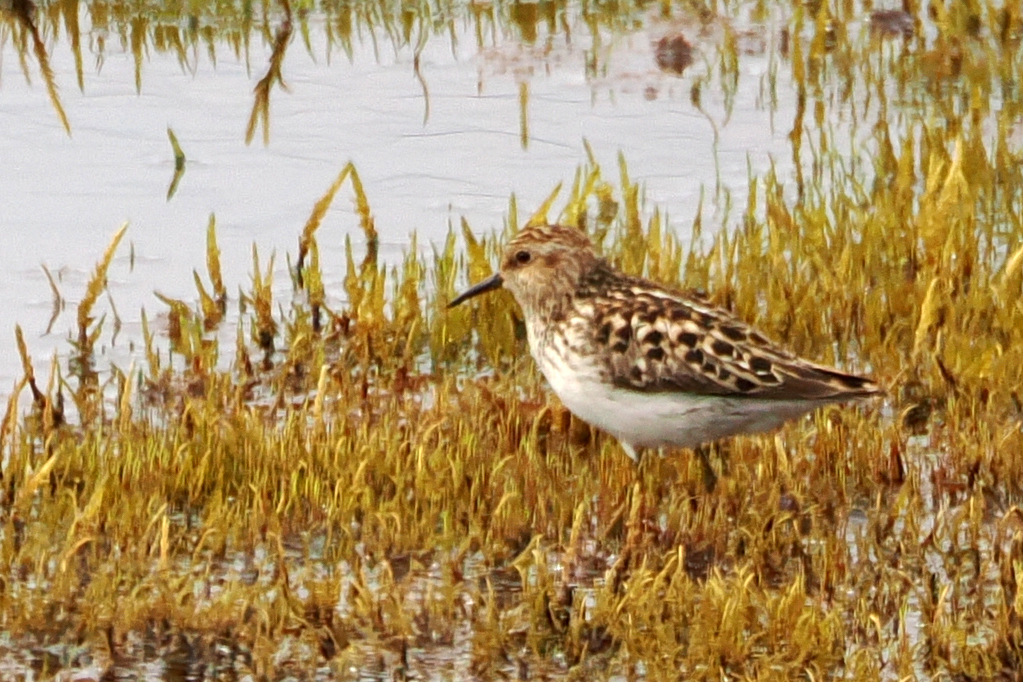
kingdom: Animalia
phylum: Chordata
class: Aves
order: Charadriiformes
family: Scolopacidae
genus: Calidris
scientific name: Calidris minutilla
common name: Least sandpiper
